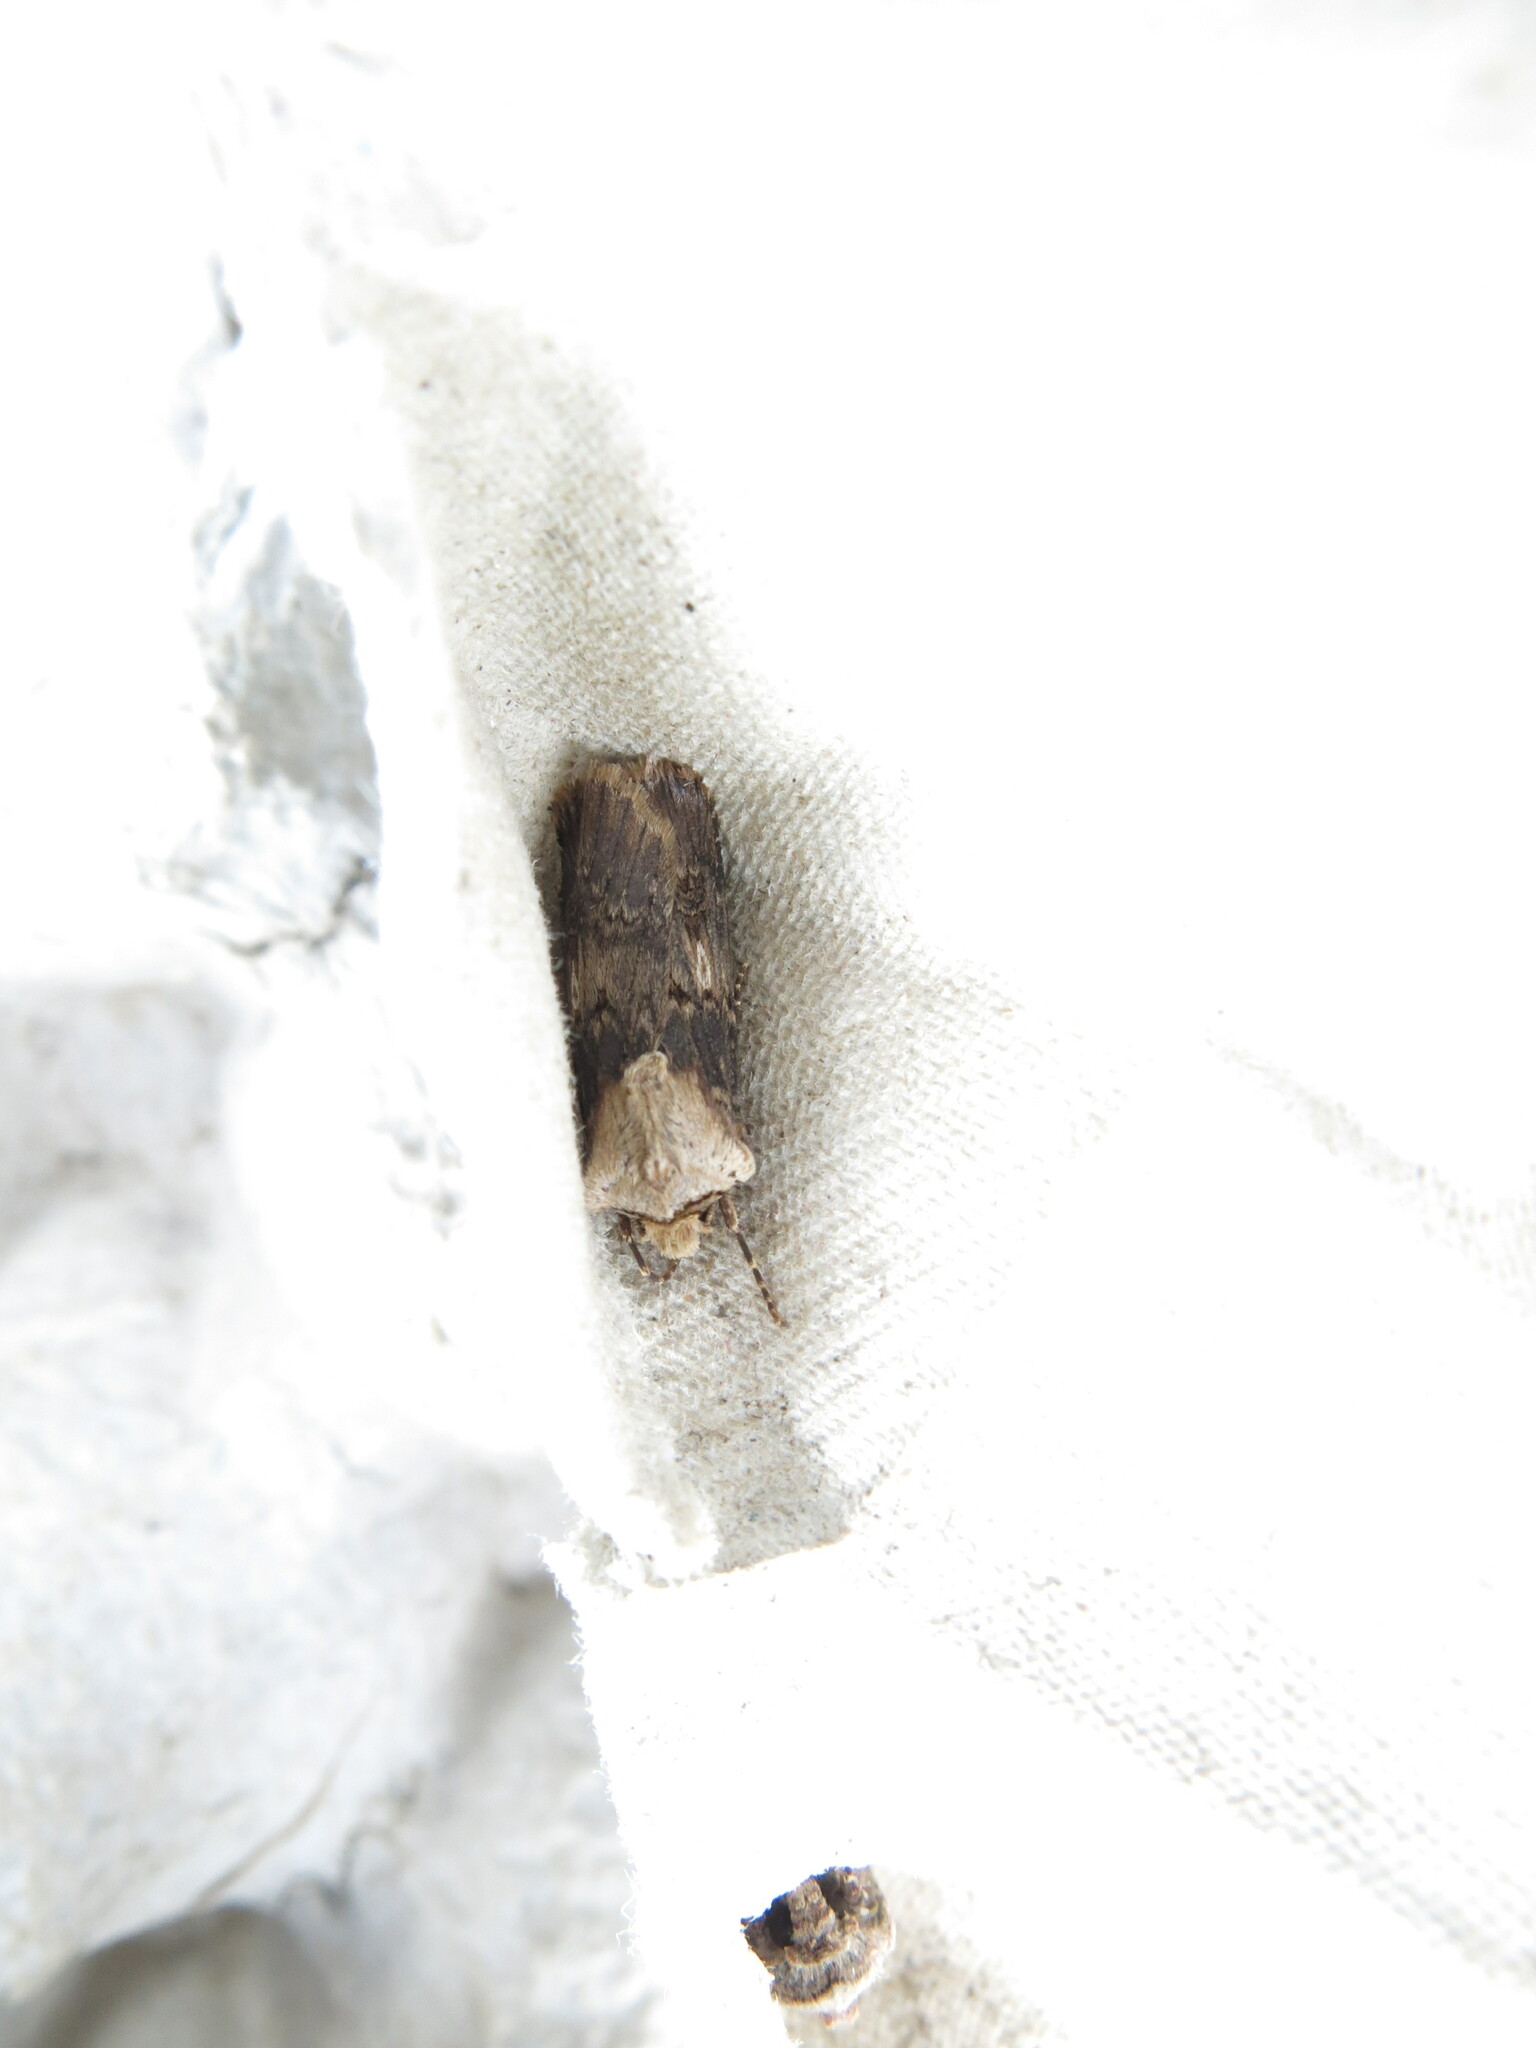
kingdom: Animalia
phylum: Arthropoda
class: Insecta
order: Lepidoptera
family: Noctuidae
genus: Agrotis
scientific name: Agrotis puta
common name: Shuttle-shaped dart
